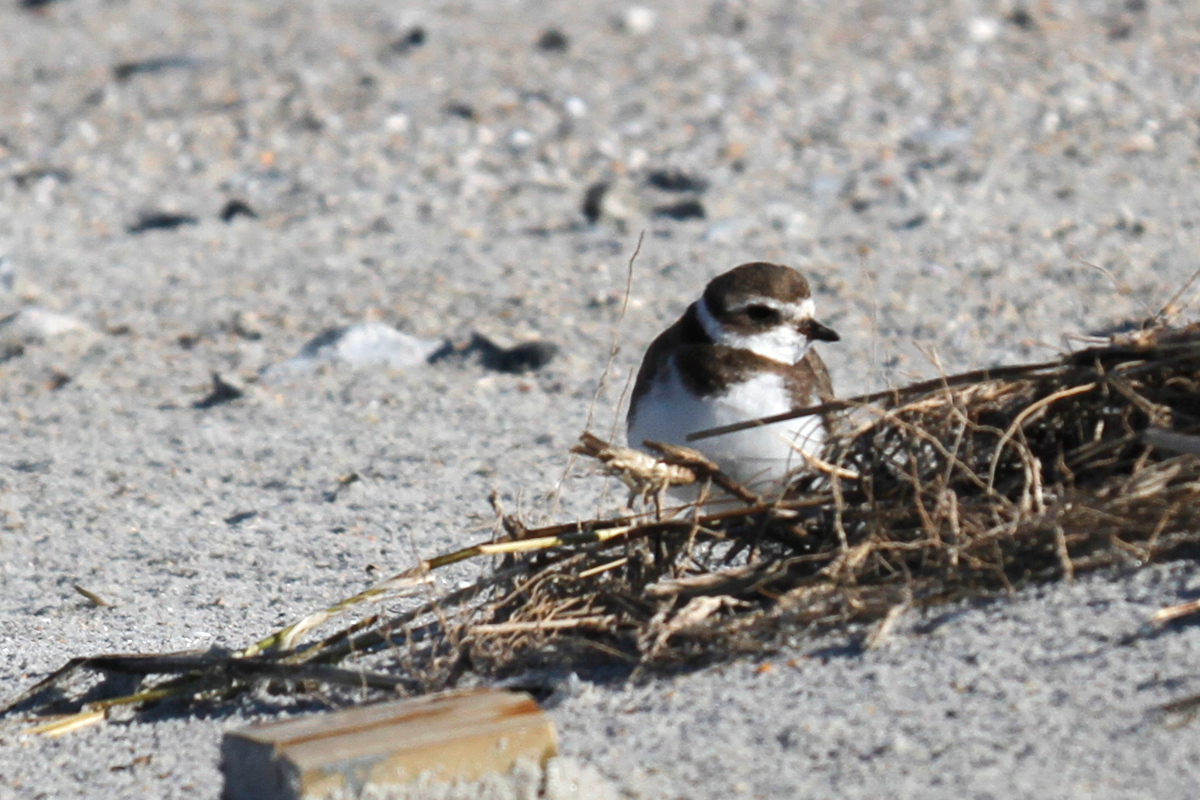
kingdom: Animalia
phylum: Chordata
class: Aves
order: Charadriiformes
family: Charadriidae
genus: Charadrius
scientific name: Charadrius semipalmatus
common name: Semipalmated plover
